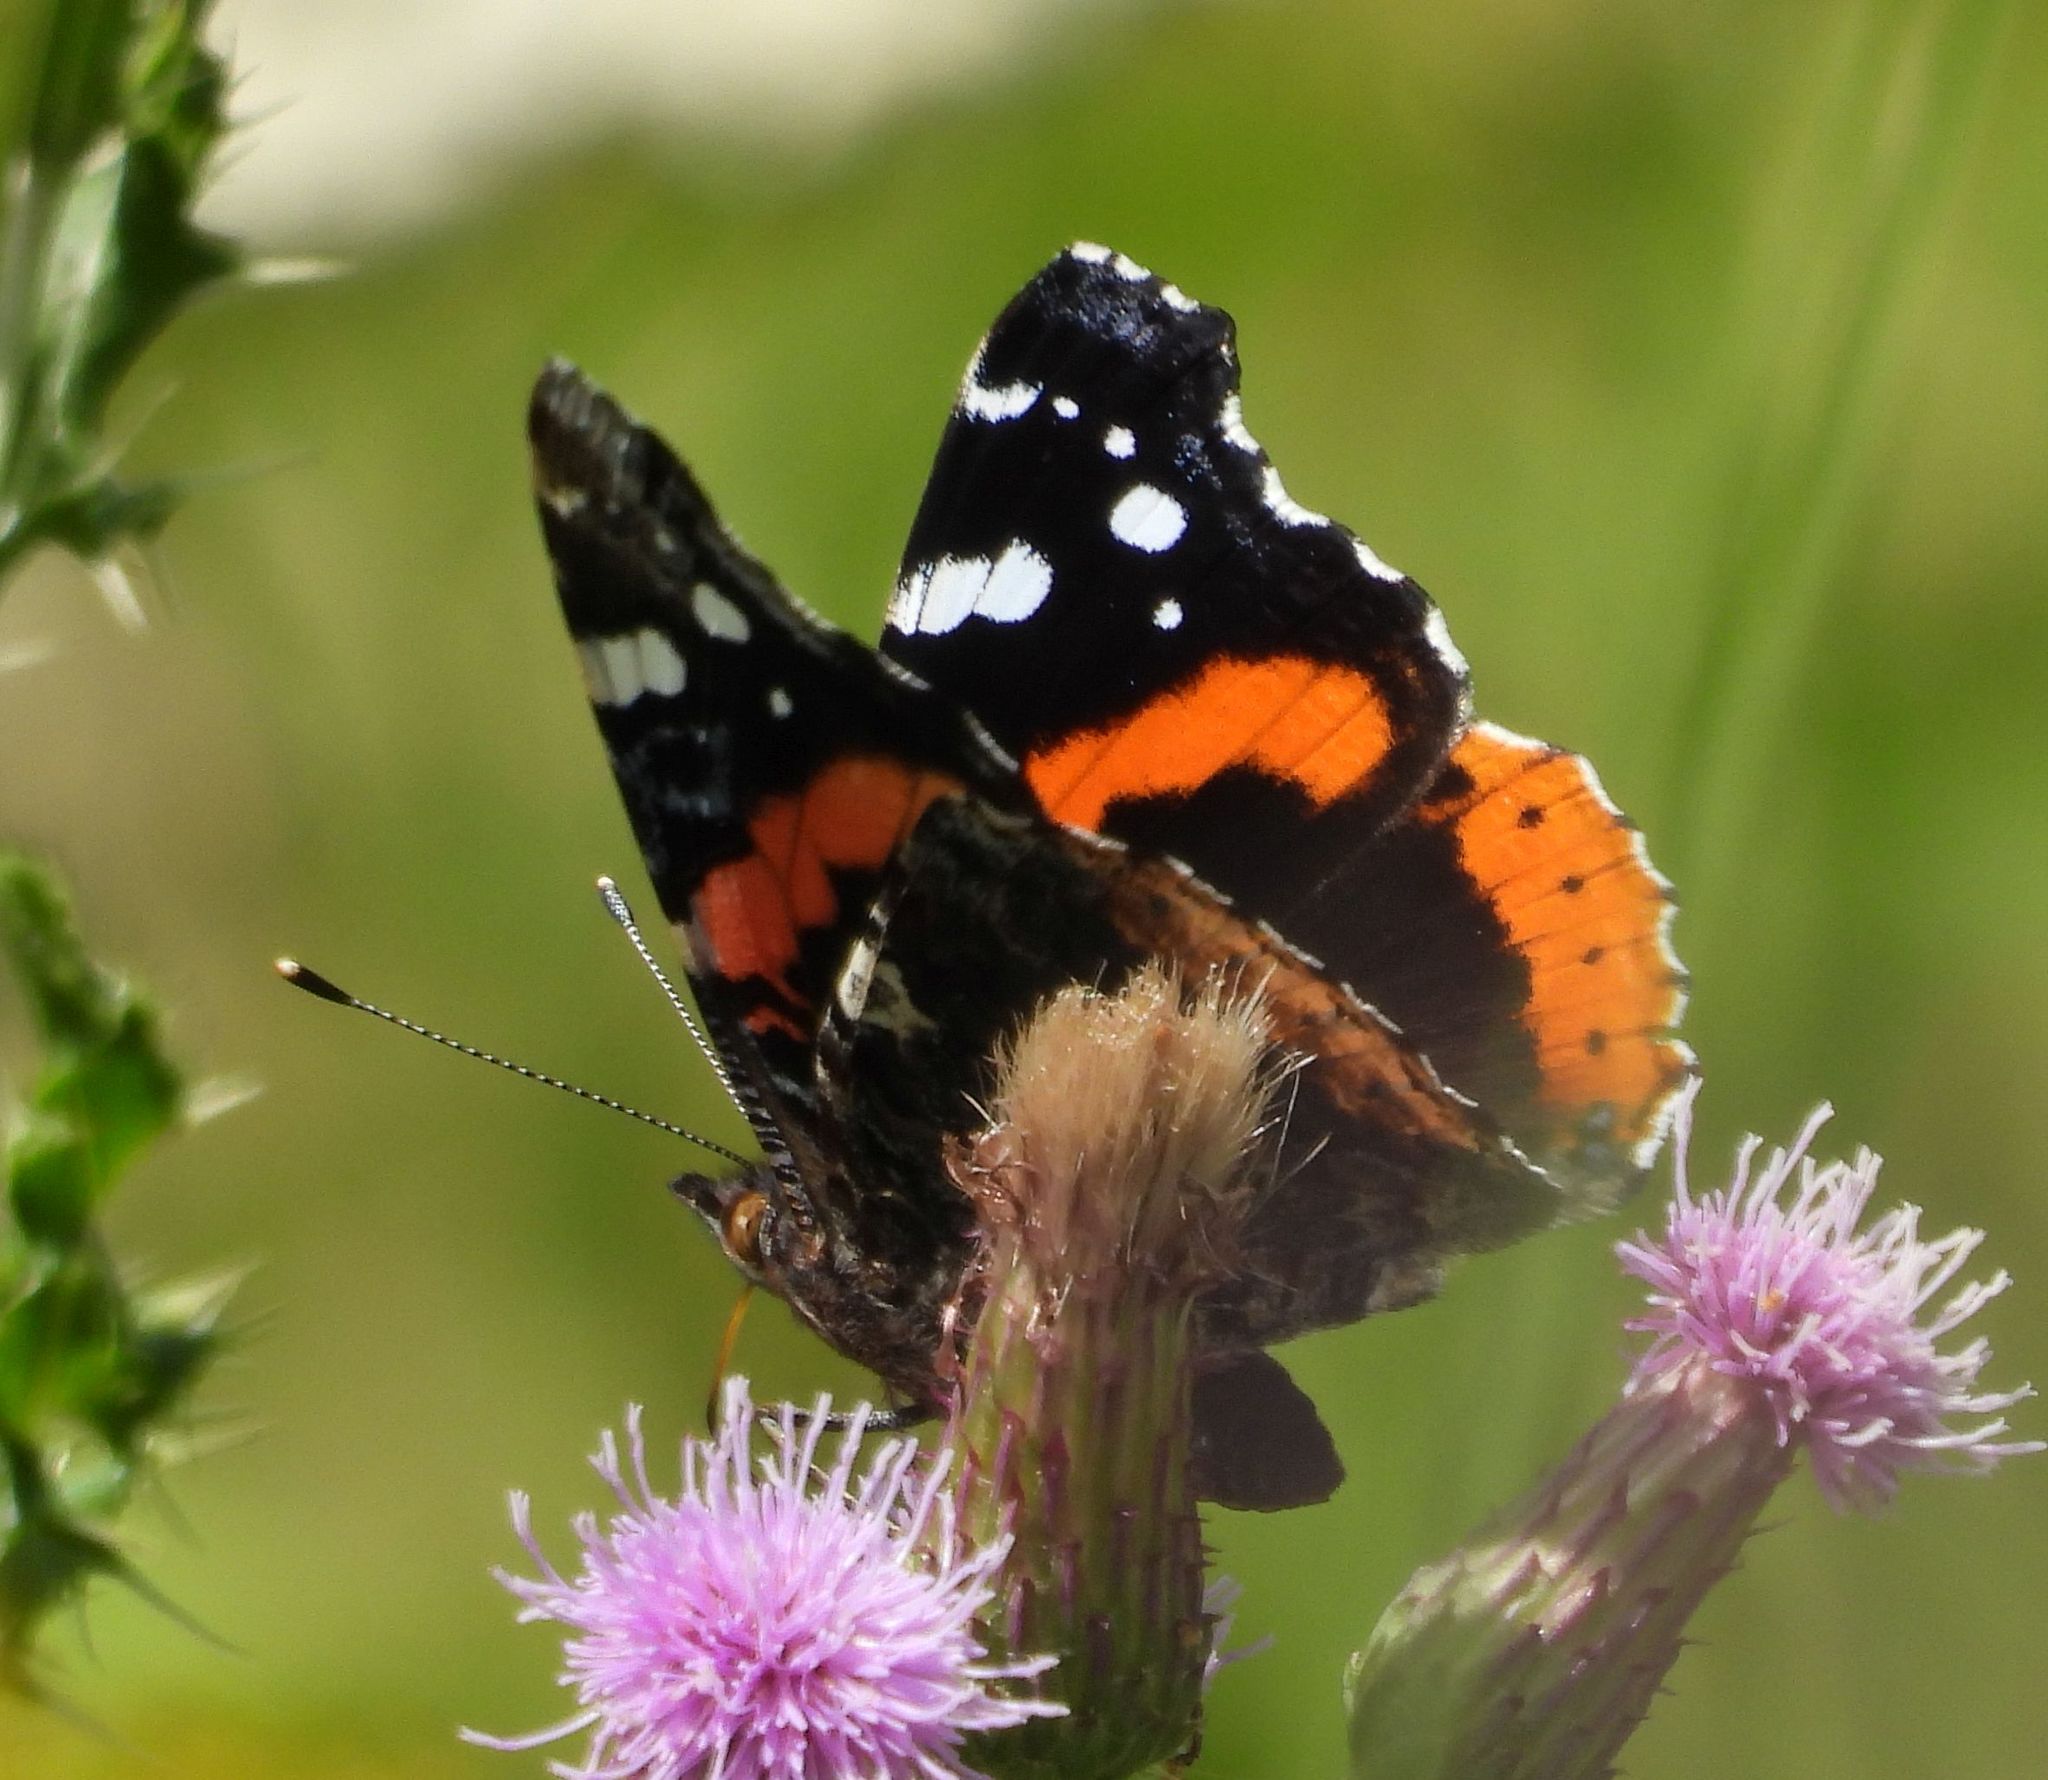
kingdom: Animalia
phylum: Arthropoda
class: Insecta
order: Lepidoptera
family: Nymphalidae
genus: Vanessa
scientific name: Vanessa atalanta
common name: Red admiral
